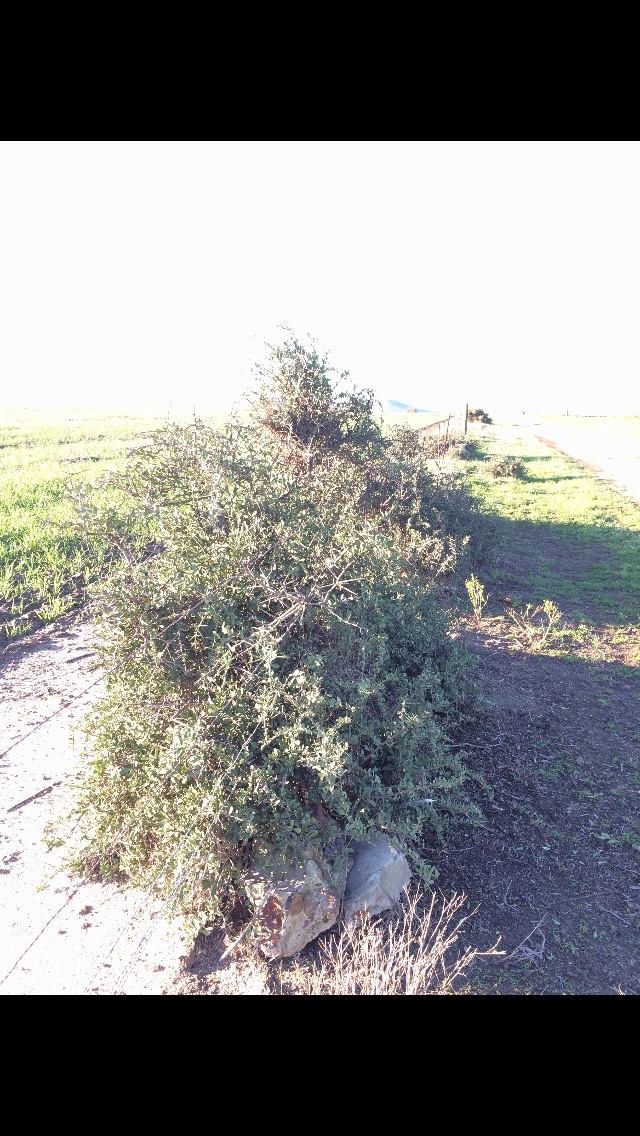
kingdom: Plantae
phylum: Tracheophyta
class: Magnoliopsida
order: Celastrales
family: Celastraceae
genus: Gymnosporia
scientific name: Gymnosporia buxifolia
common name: Common spike-thorn
